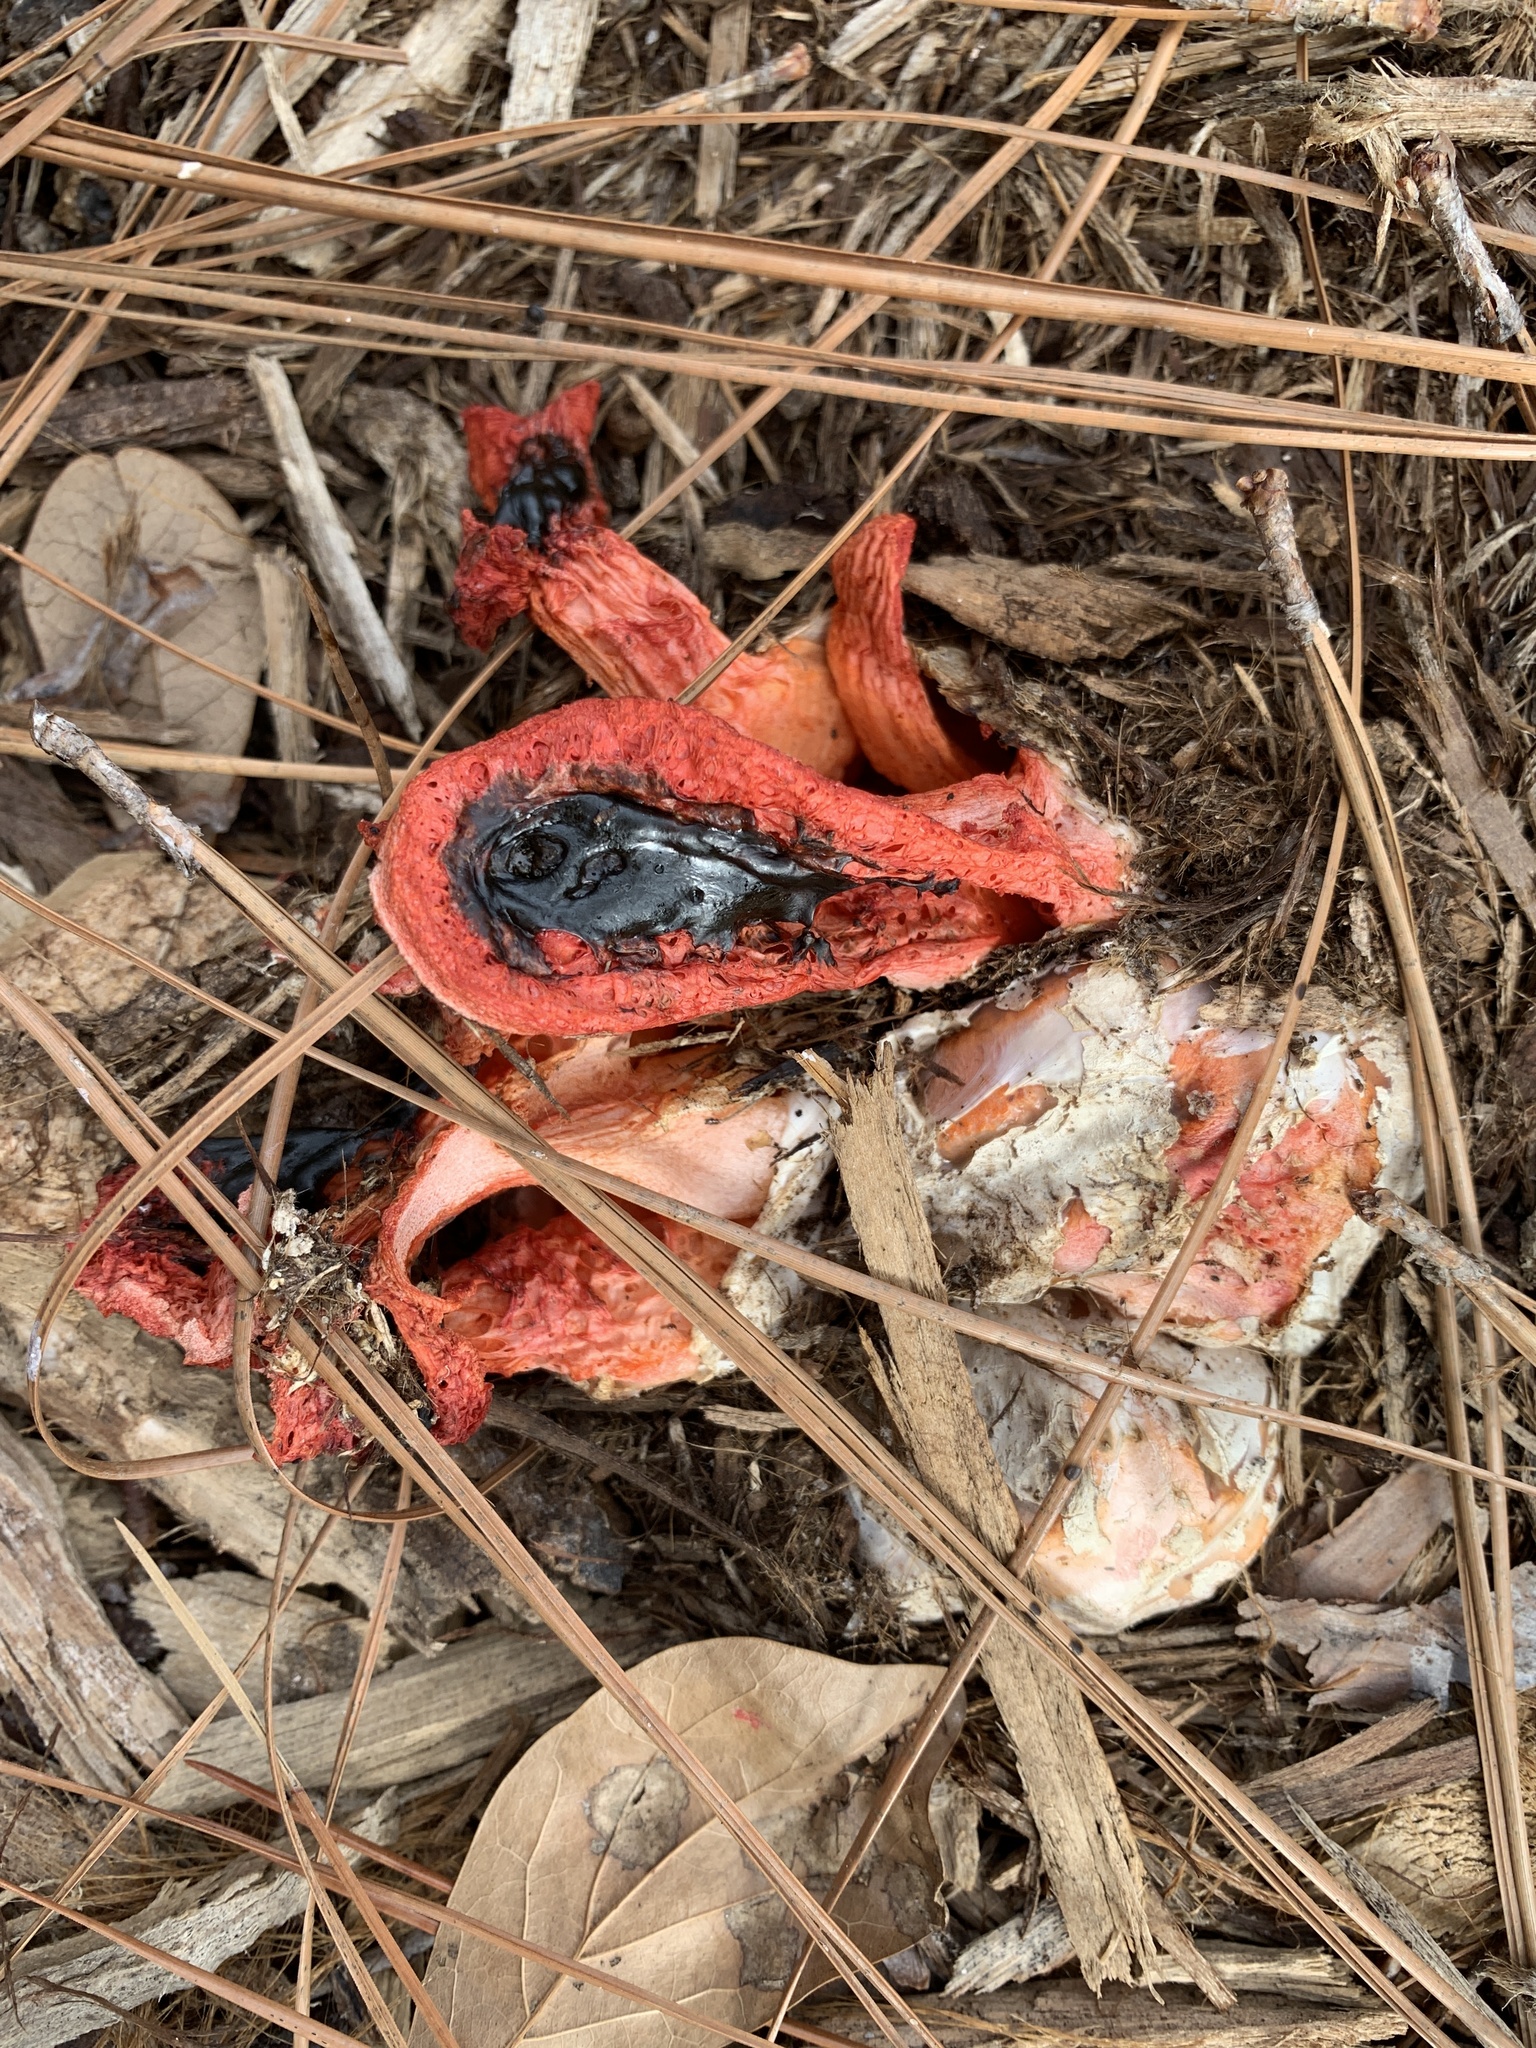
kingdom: Fungi
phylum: Basidiomycota
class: Agaricomycetes
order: Phallales
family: Phallaceae
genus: Clathrus
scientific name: Clathrus columnatus
